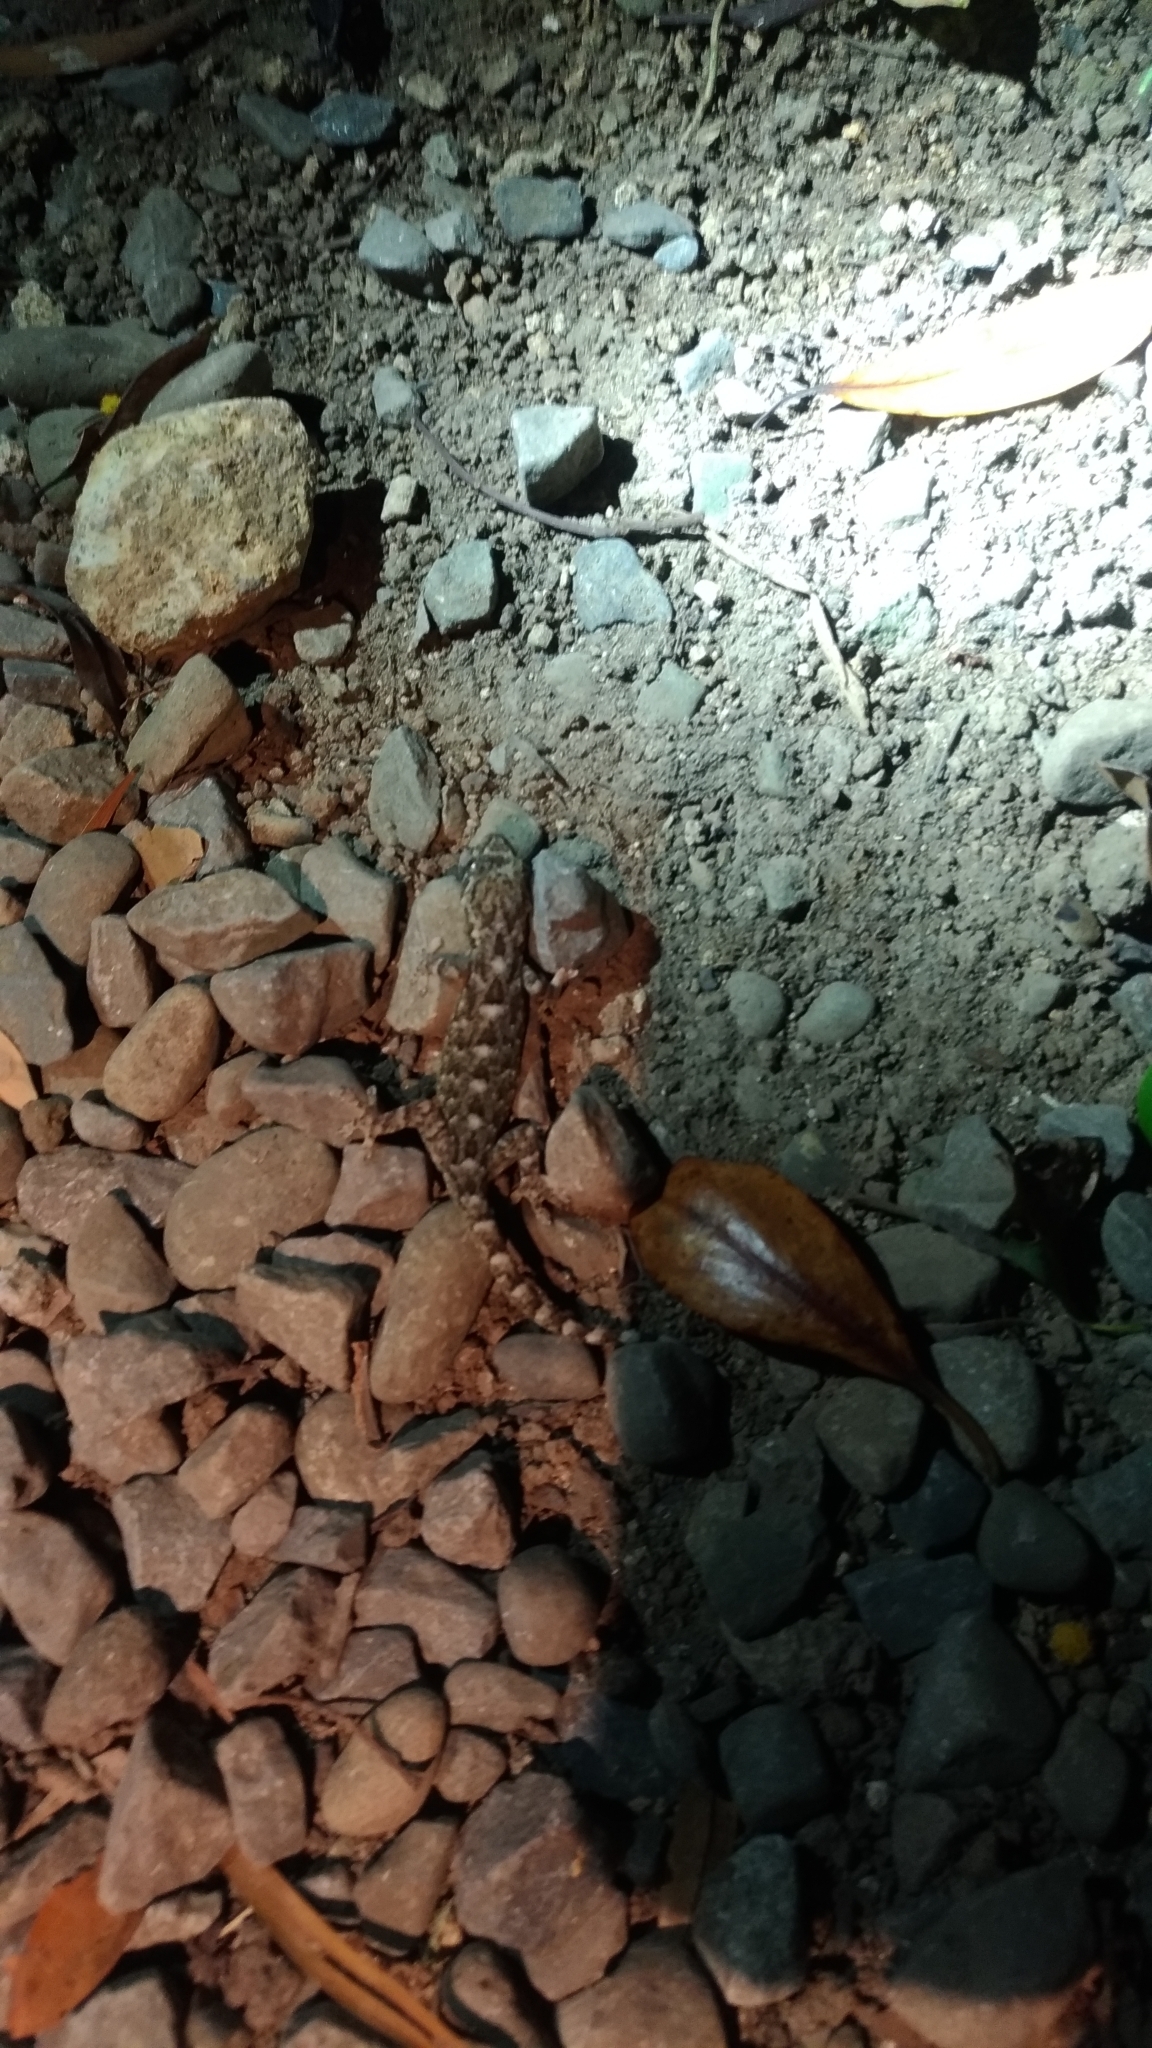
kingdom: Animalia
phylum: Chordata
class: Squamata
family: Gekkonidae
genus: Gekko
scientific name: Gekko hokouensis
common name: Kwangsi gecko
